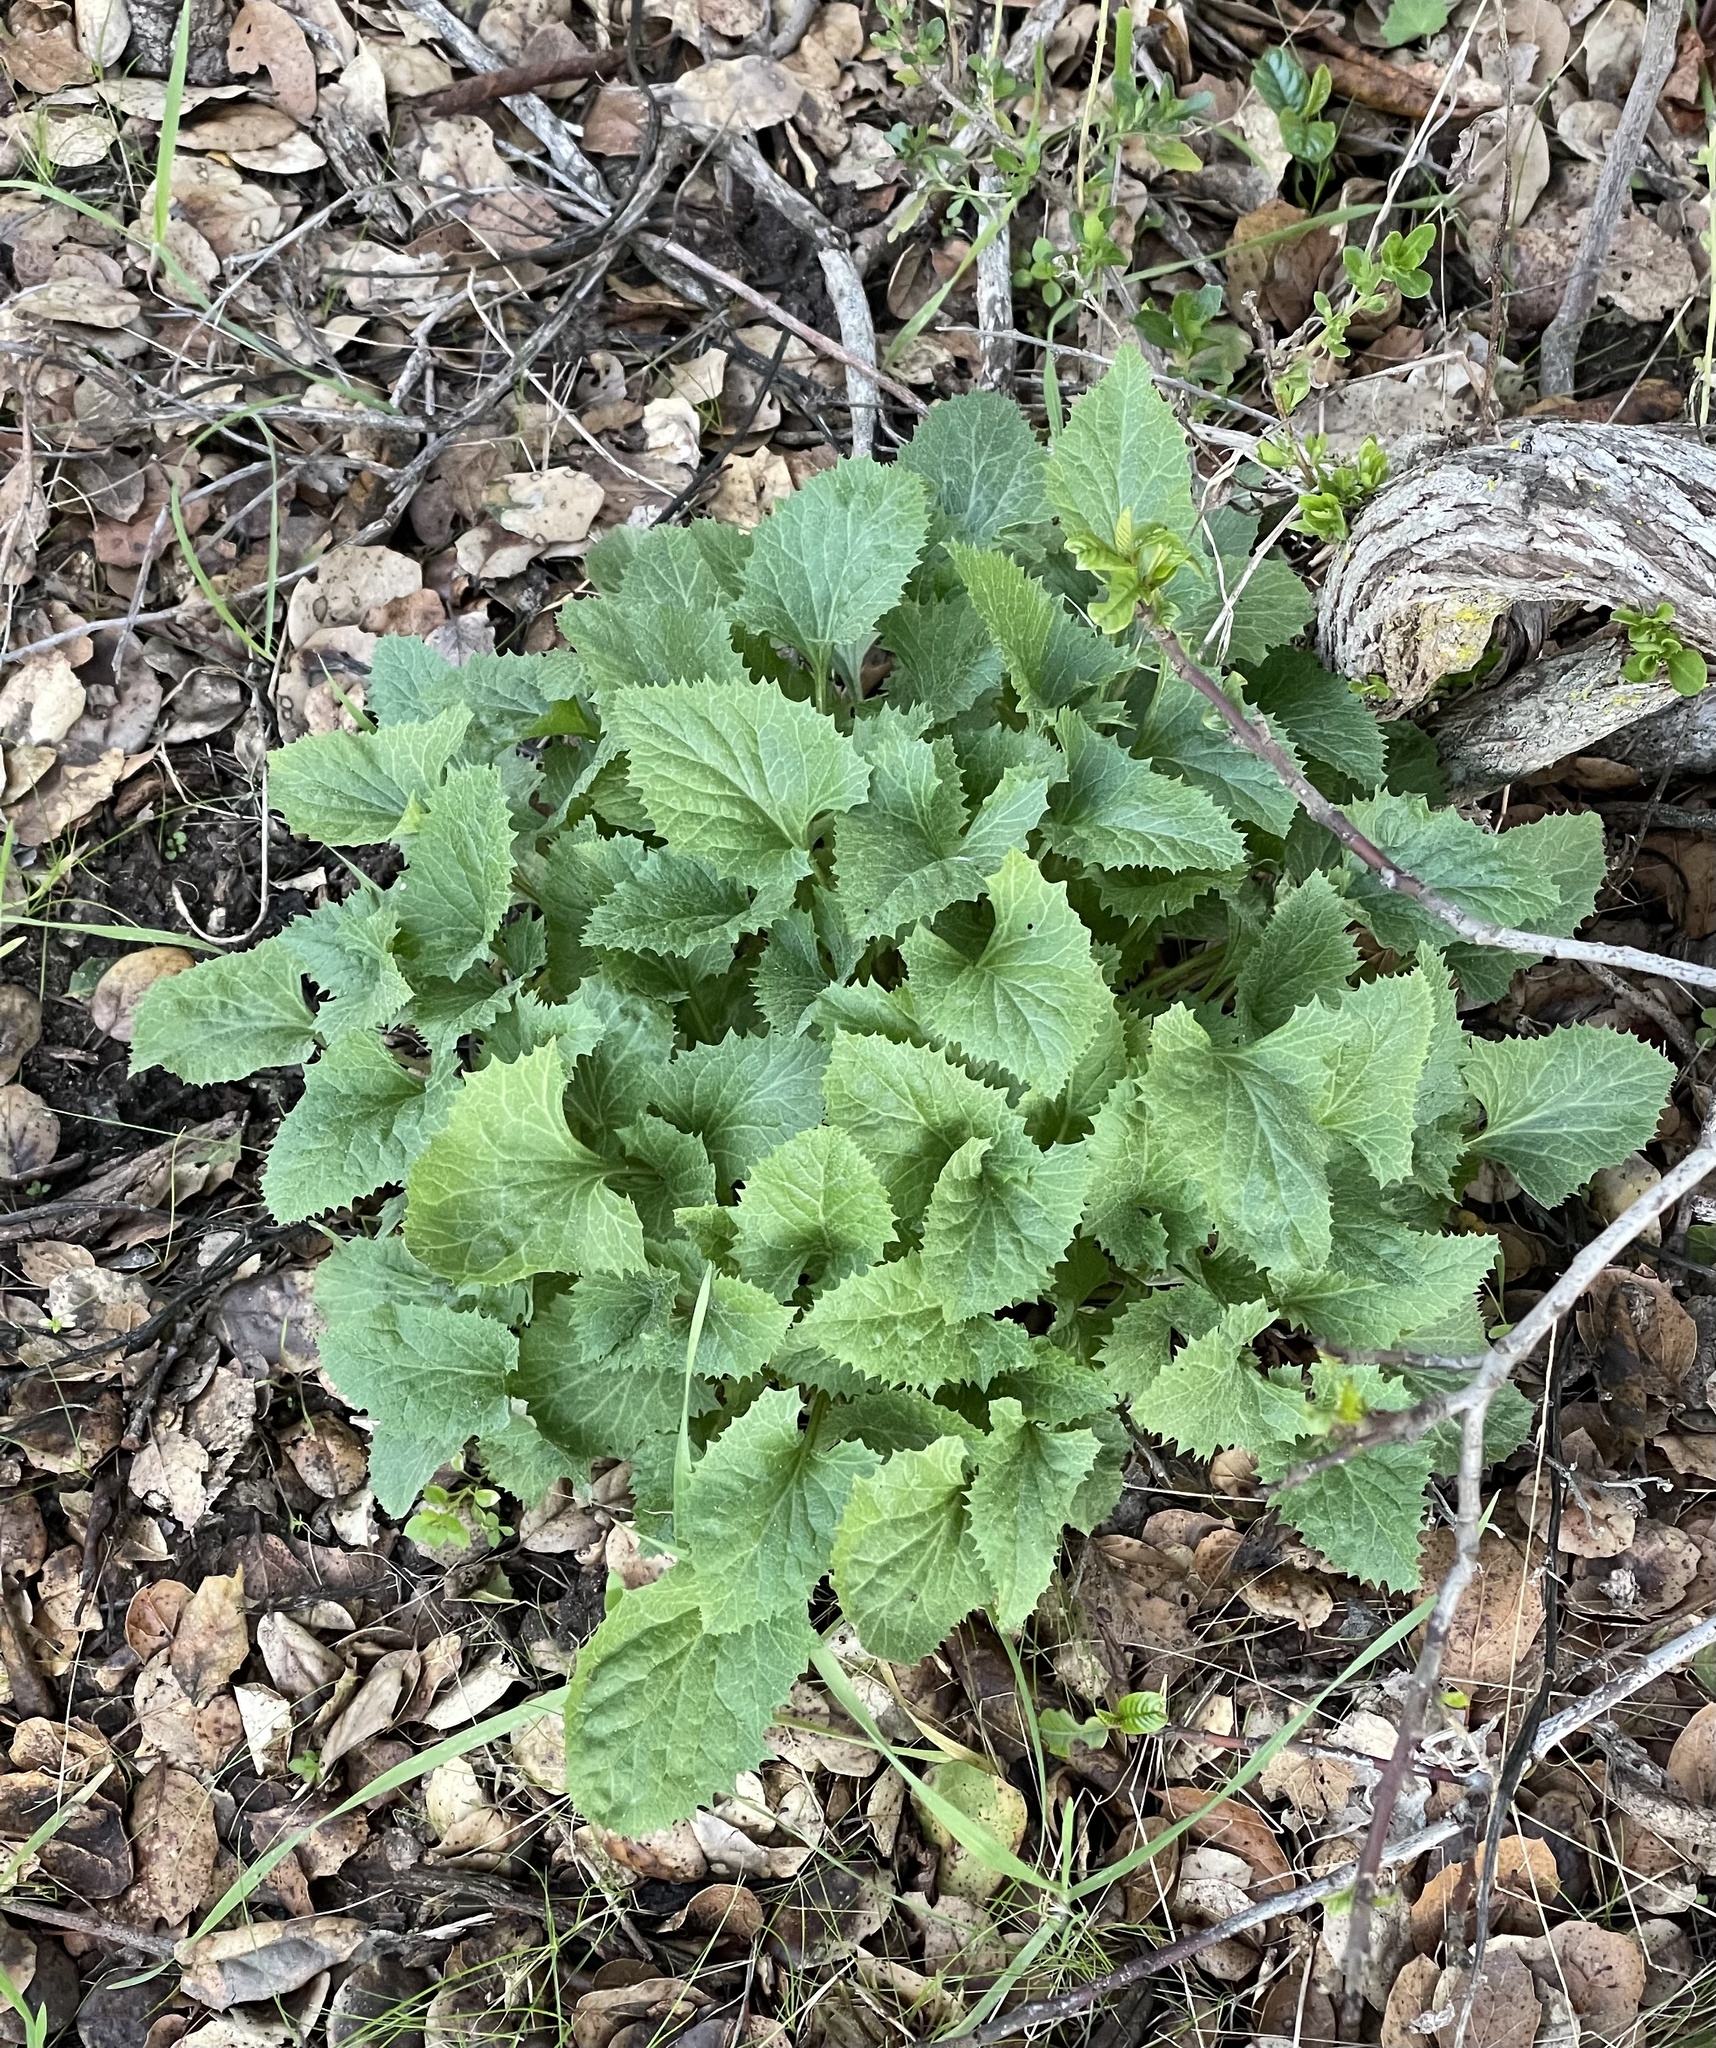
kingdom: Plantae
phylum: Tracheophyta
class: Magnoliopsida
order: Caryophyllales
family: Amaranthaceae
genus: Blitum
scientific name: Blitum californicum
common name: California goosefoot
